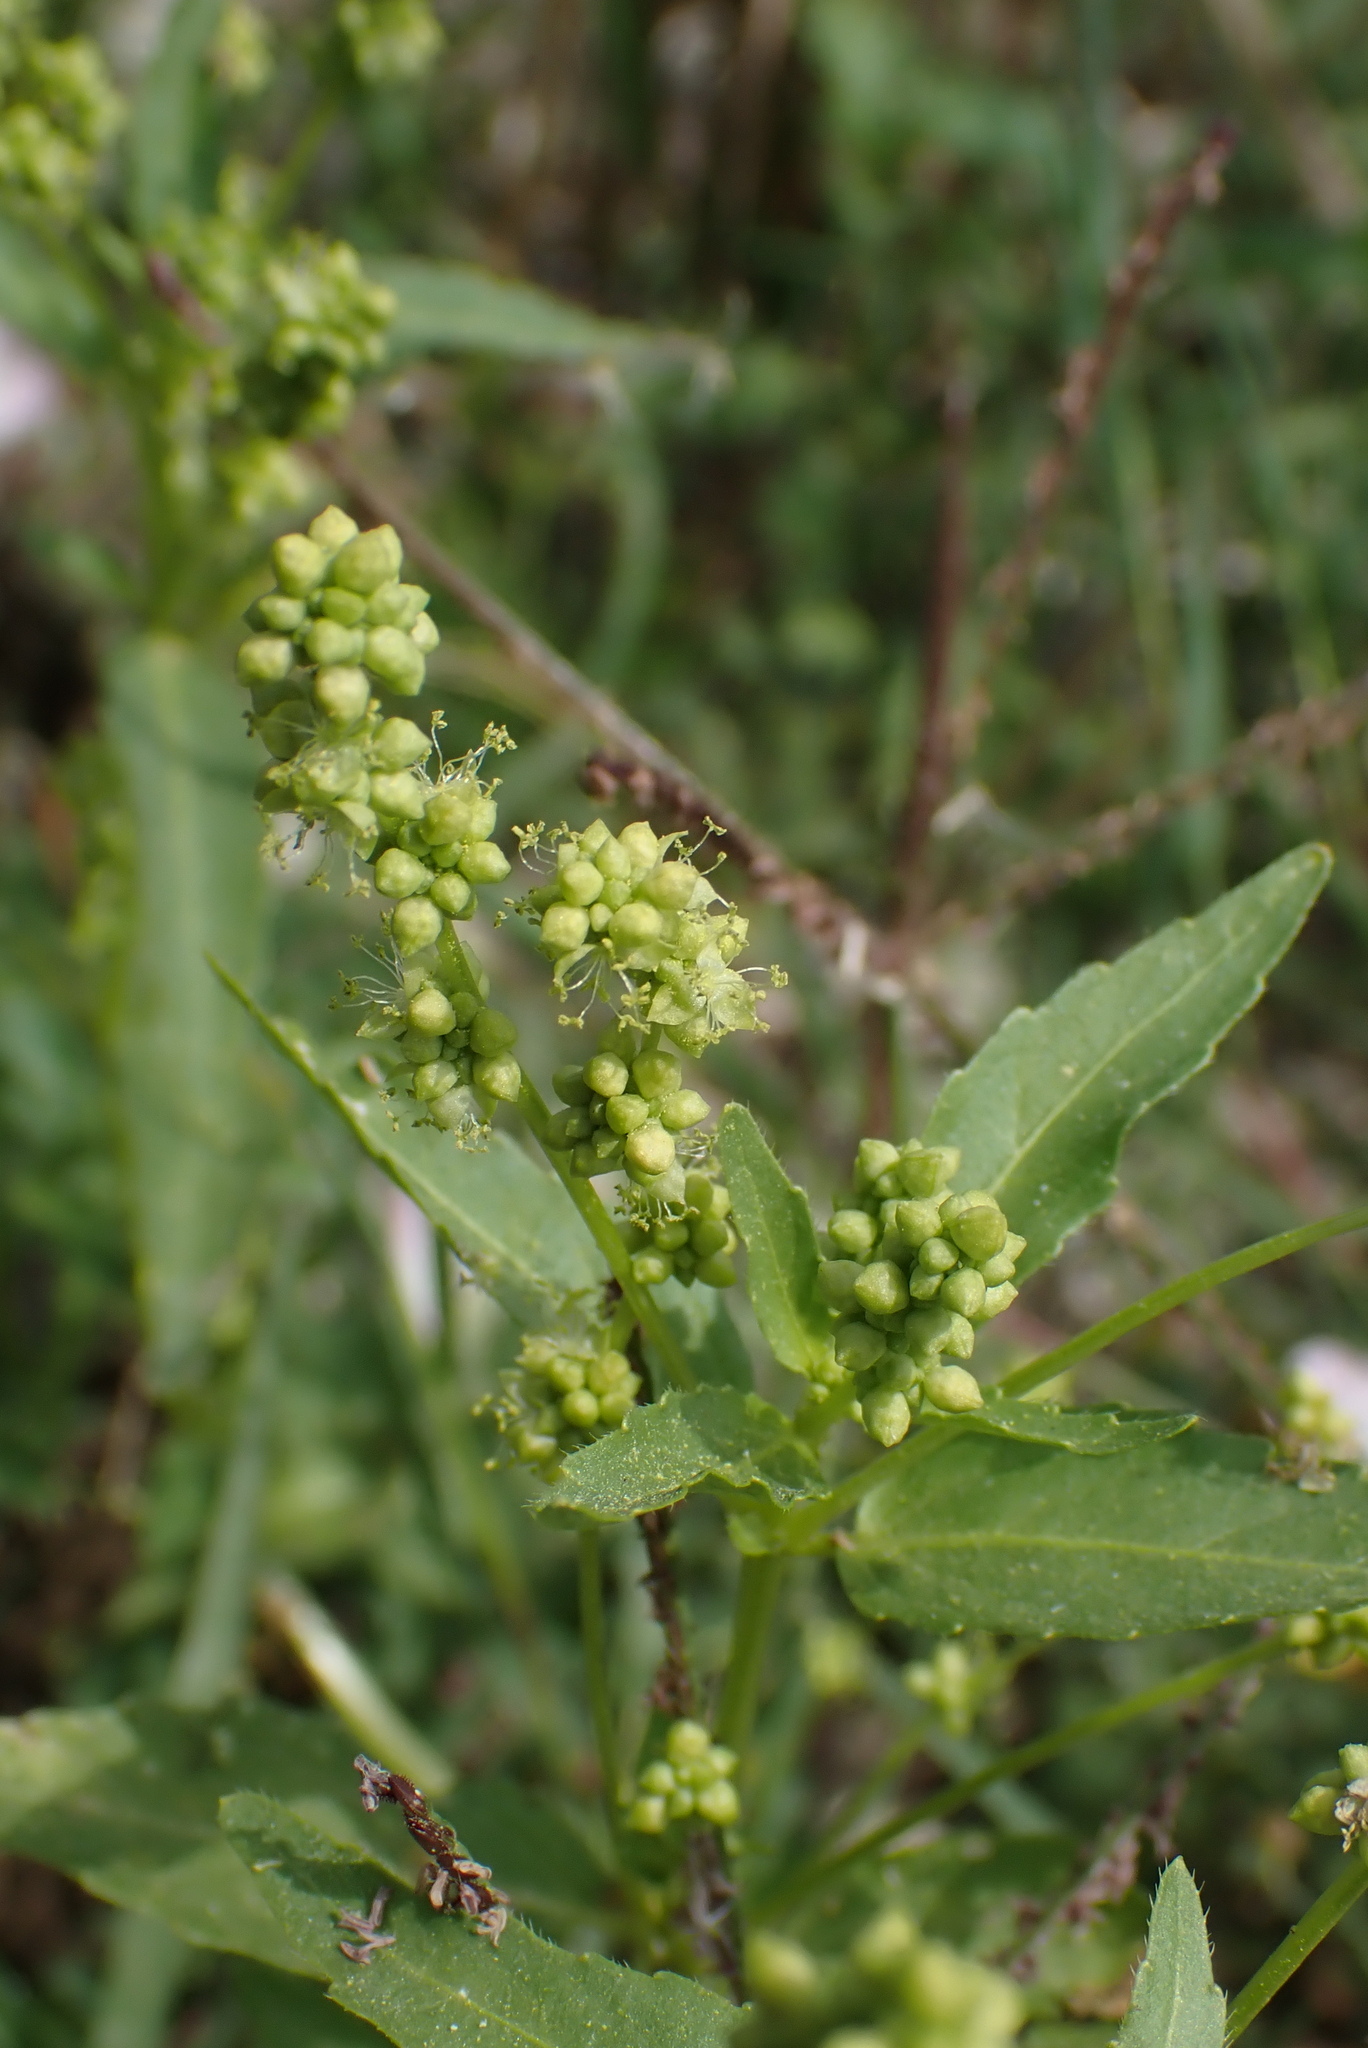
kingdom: Plantae
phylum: Tracheophyta
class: Magnoliopsida
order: Malpighiales
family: Euphorbiaceae
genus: Mercurialis
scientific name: Mercurialis annua
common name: Annual mercury
